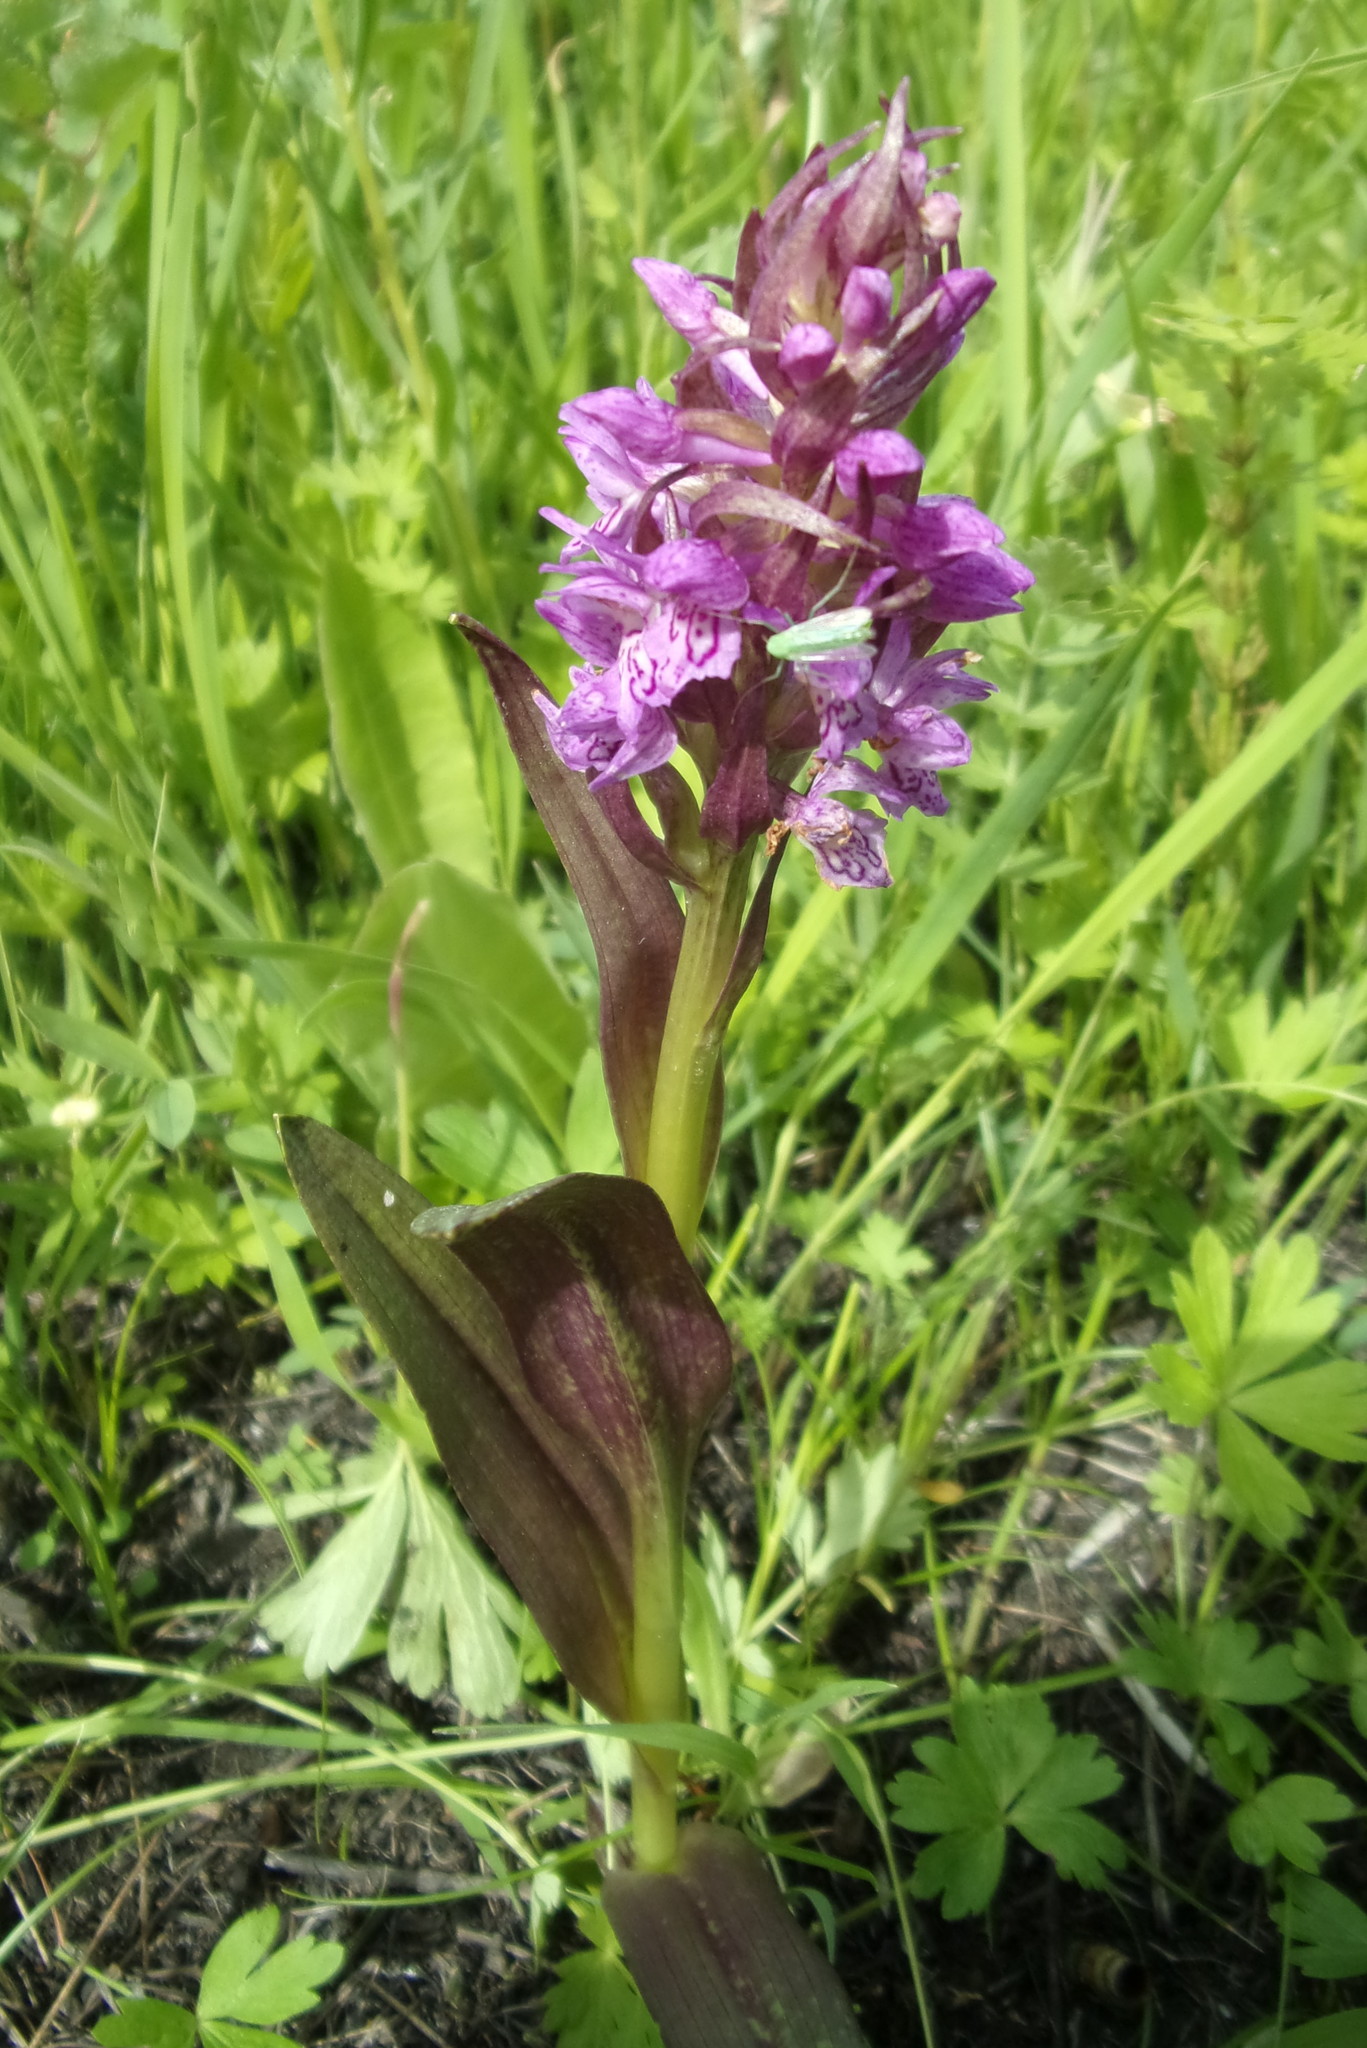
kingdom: Plantae
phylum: Tracheophyta
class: Liliopsida
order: Asparagales
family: Orchidaceae
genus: Dactylorhiza
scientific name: Dactylorhiza incarnata
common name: Early marsh-orchid
